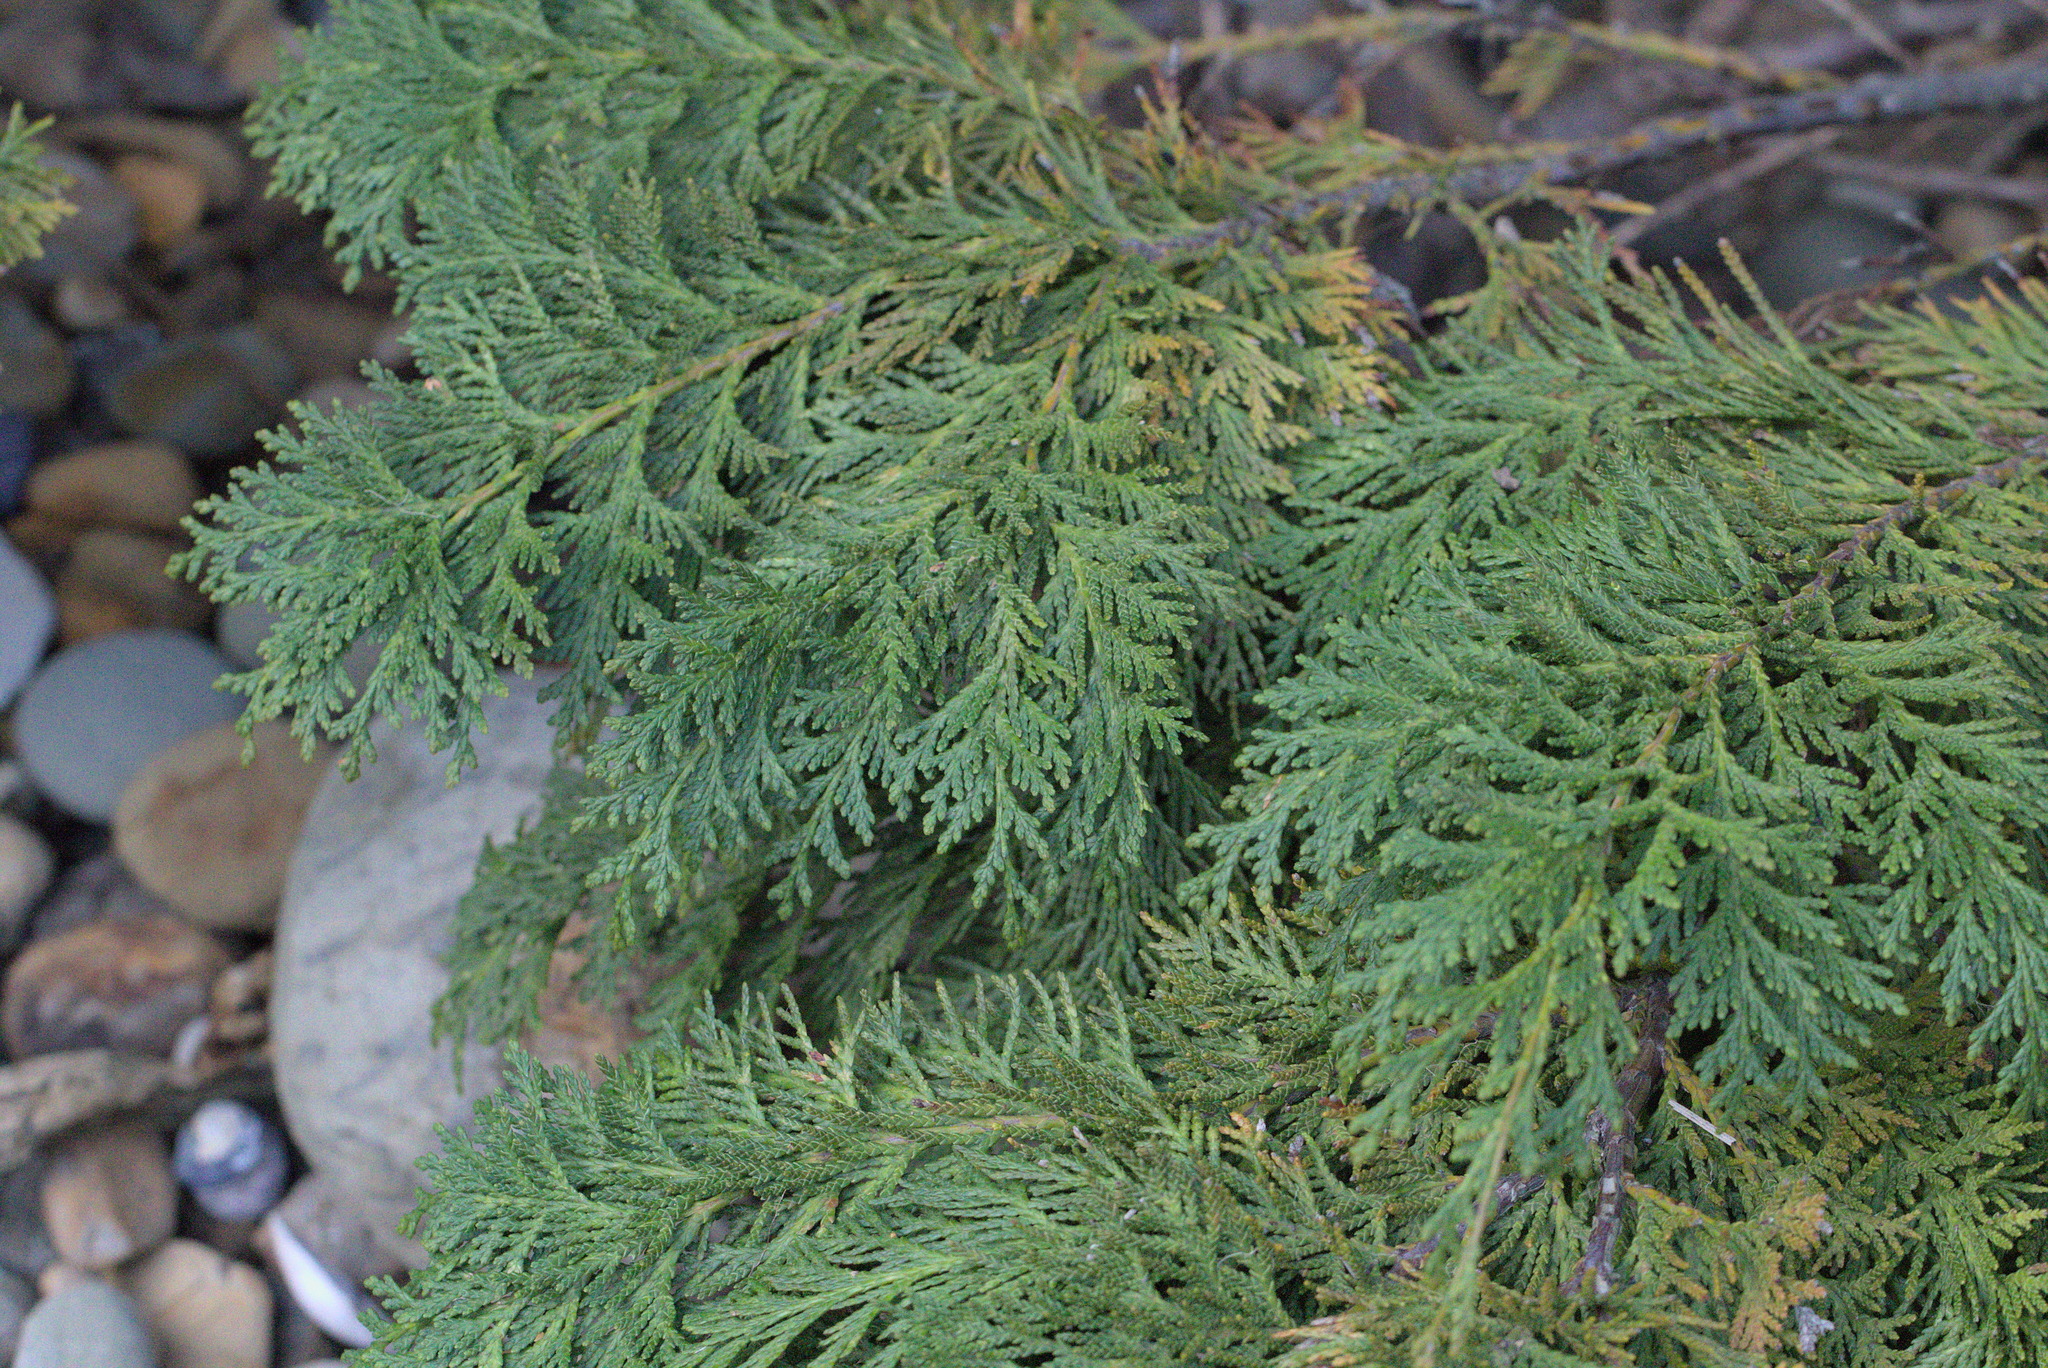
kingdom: Plantae
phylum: Tracheophyta
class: Pinopsida
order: Pinales
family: Cupressaceae
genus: Chamaecyparis
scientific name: Chamaecyparis lawsoniana
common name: Lawson's cypress
